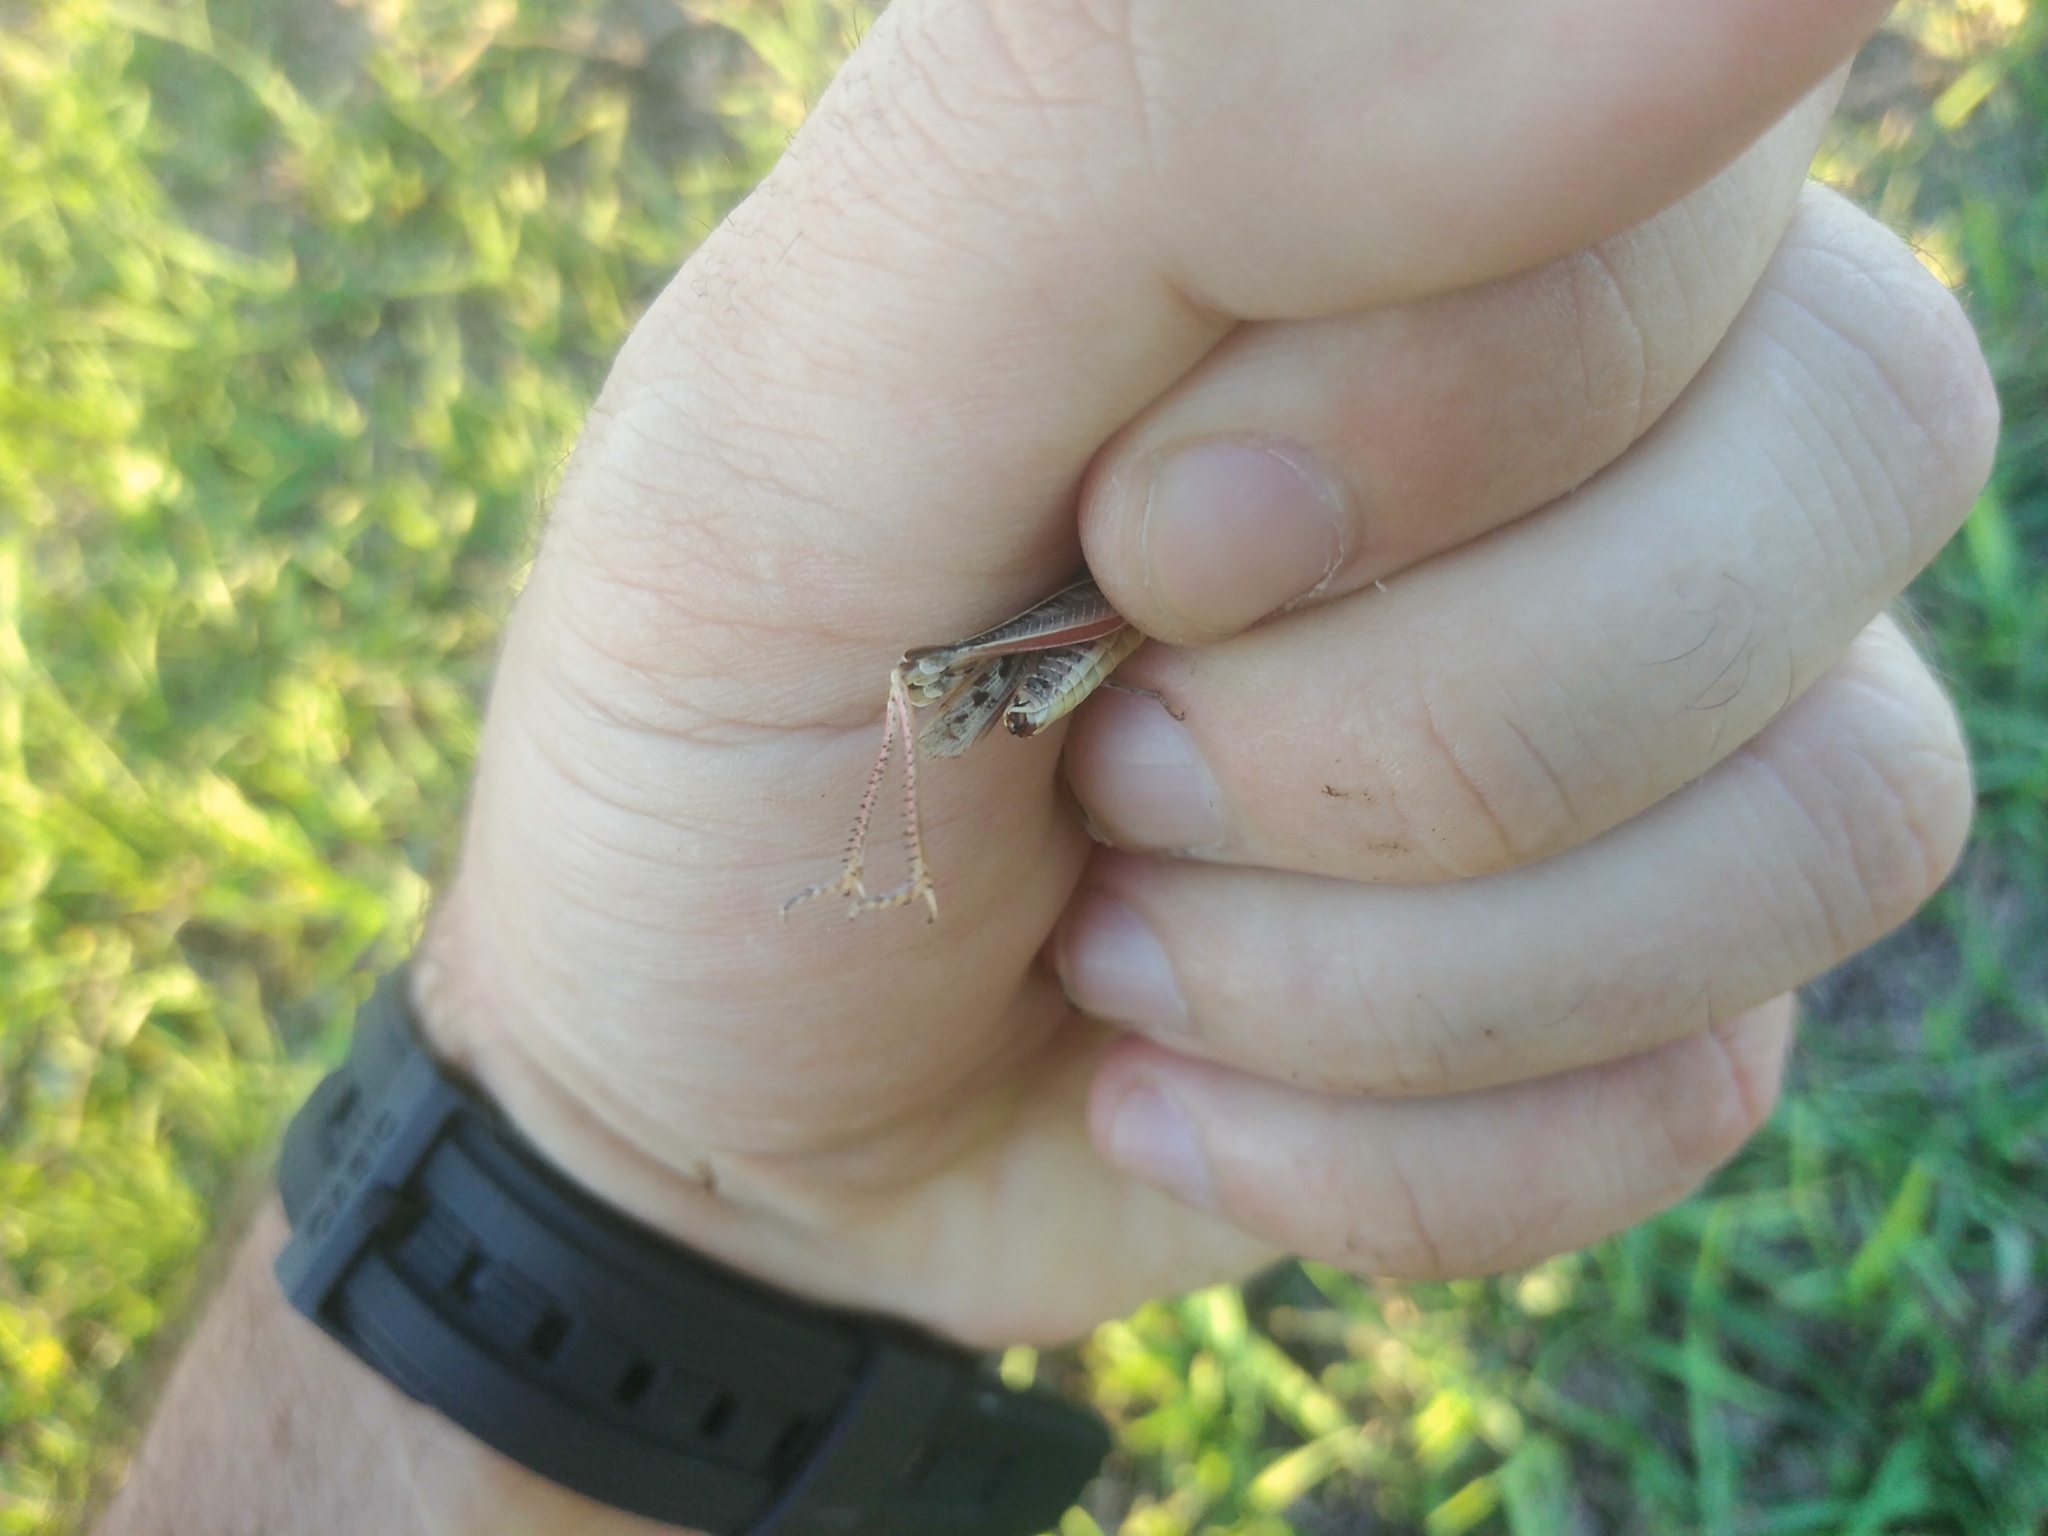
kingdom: Animalia
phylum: Arthropoda
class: Insecta
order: Orthoptera
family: Acrididae
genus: Borellia
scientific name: Borellia bruneri
